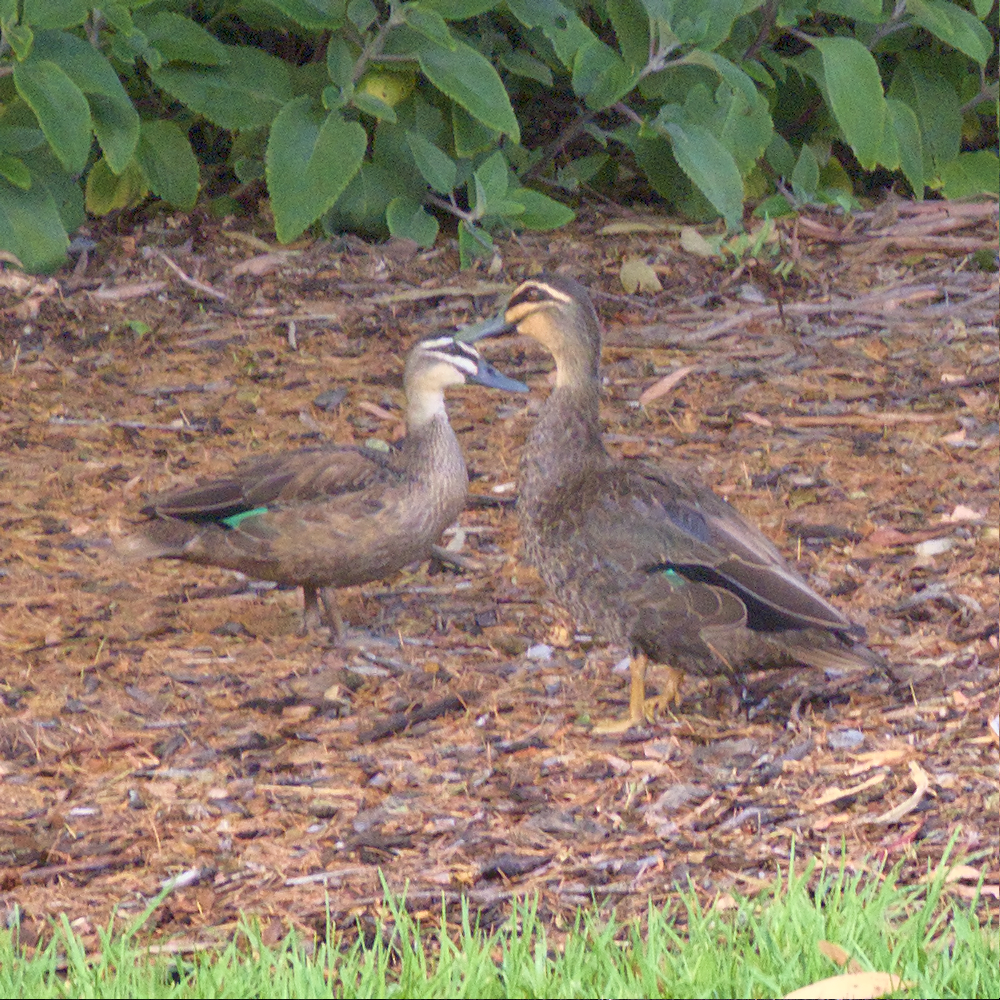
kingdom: Animalia
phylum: Chordata
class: Aves
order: Anseriformes
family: Anatidae
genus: Anas
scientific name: Anas superciliosa
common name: Pacific black duck
